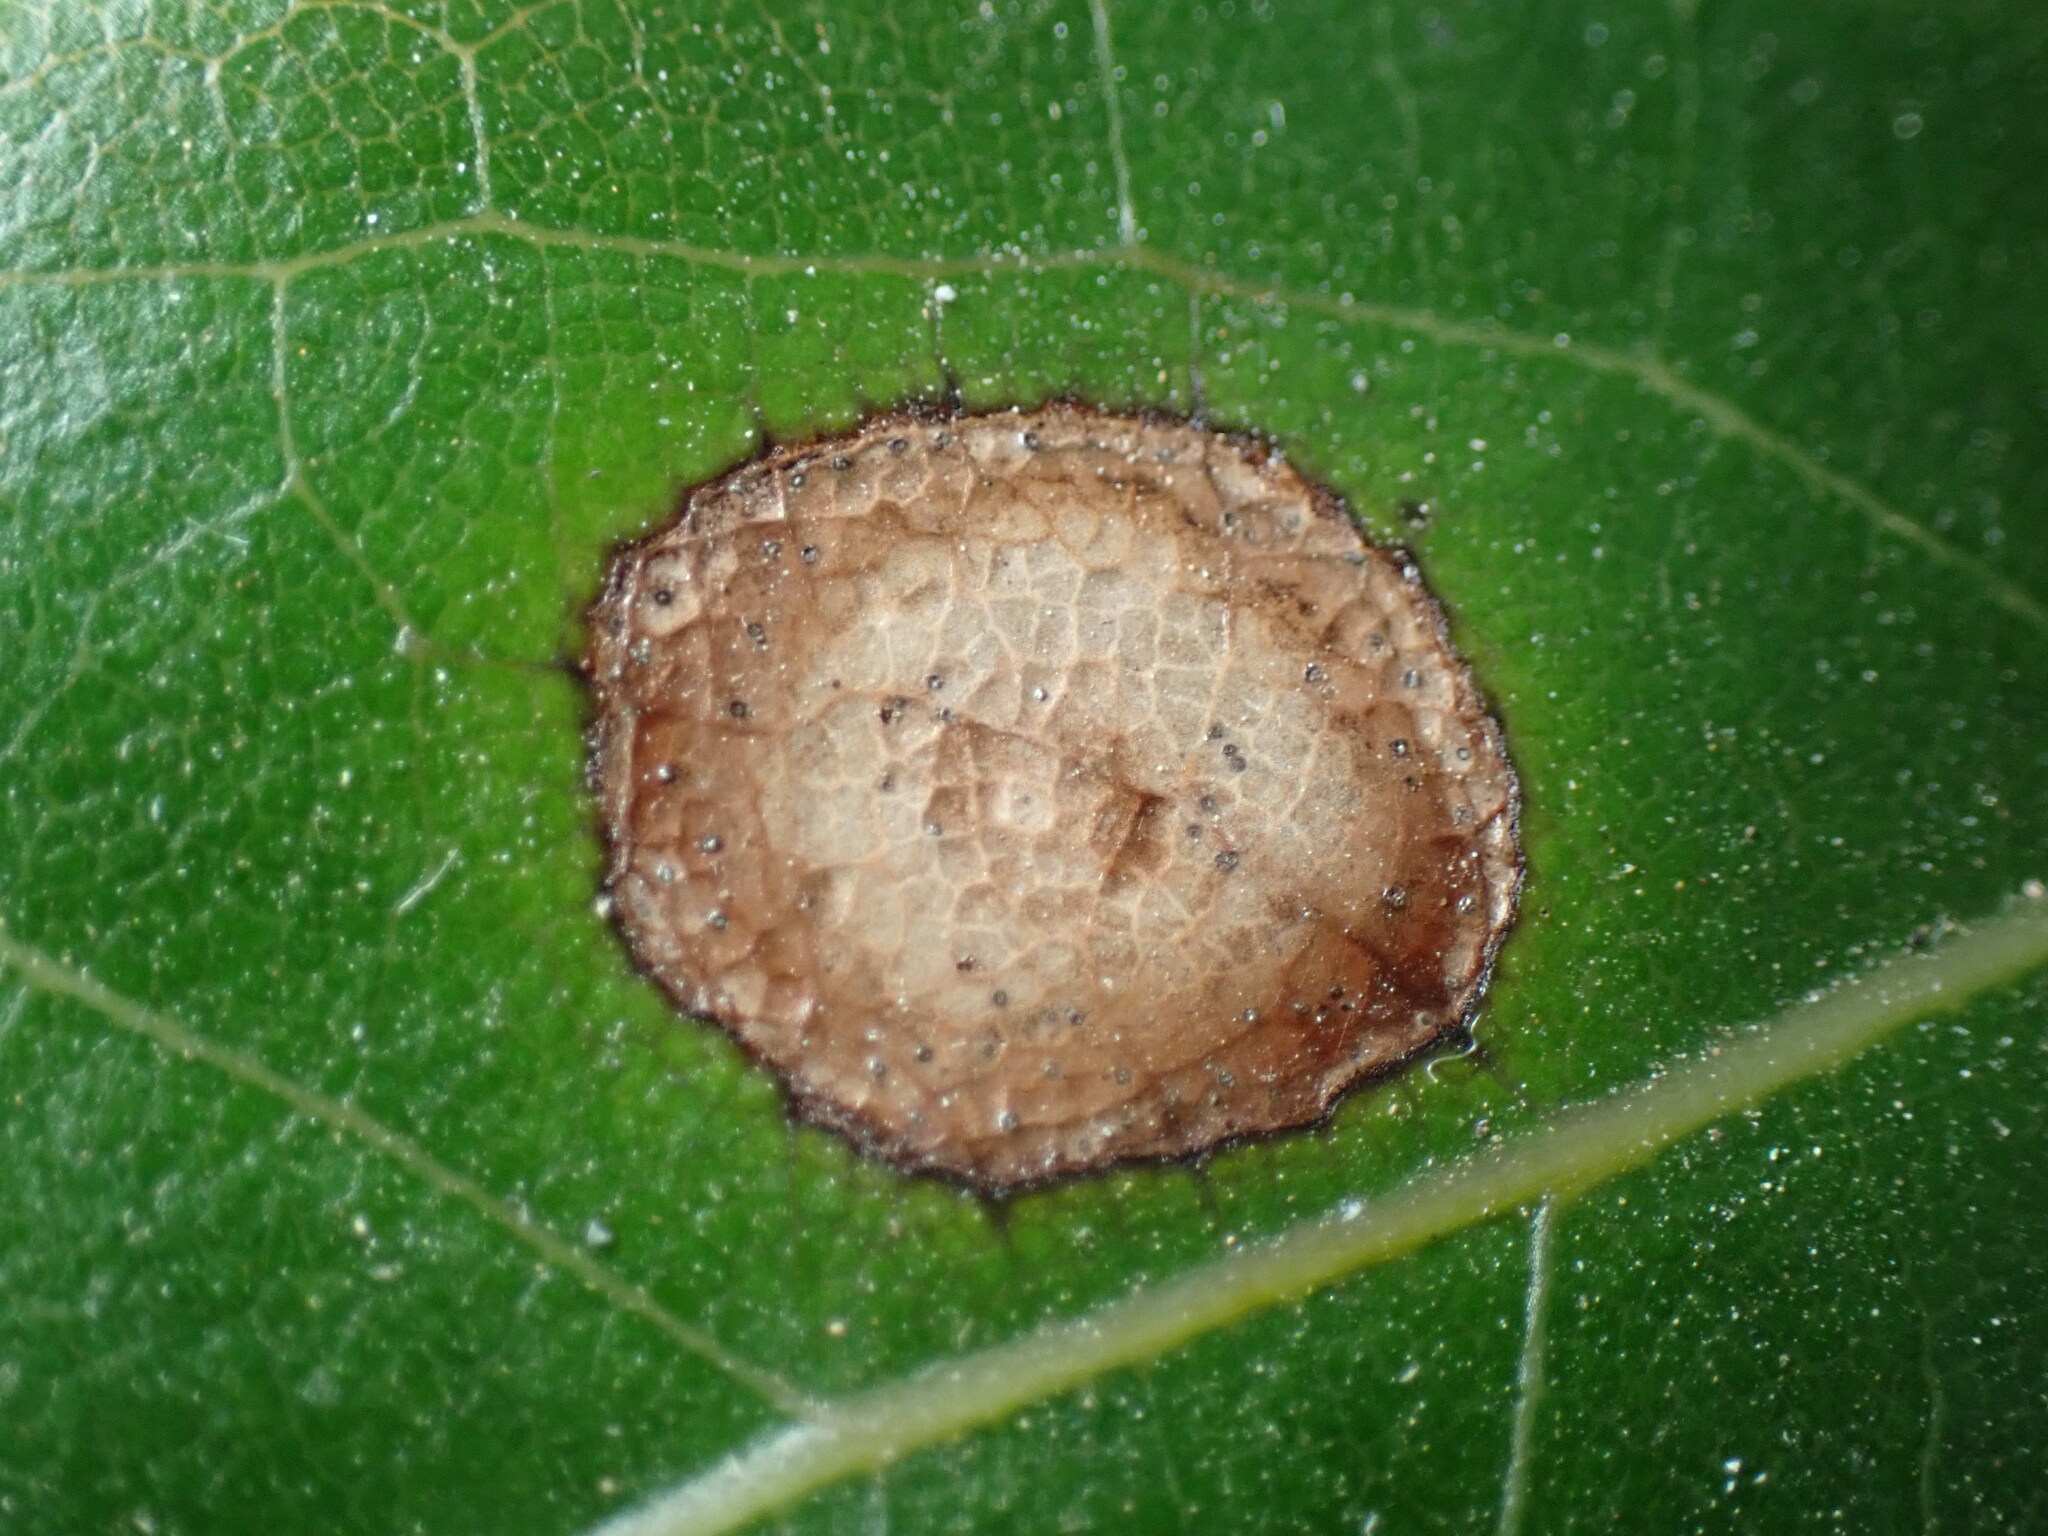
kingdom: Fungi
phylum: Ascomycota
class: Dothideomycetes
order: Botryosphaeriales
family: Phyllostictaceae
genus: Phyllosticta
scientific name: Phyllosticta lauri
